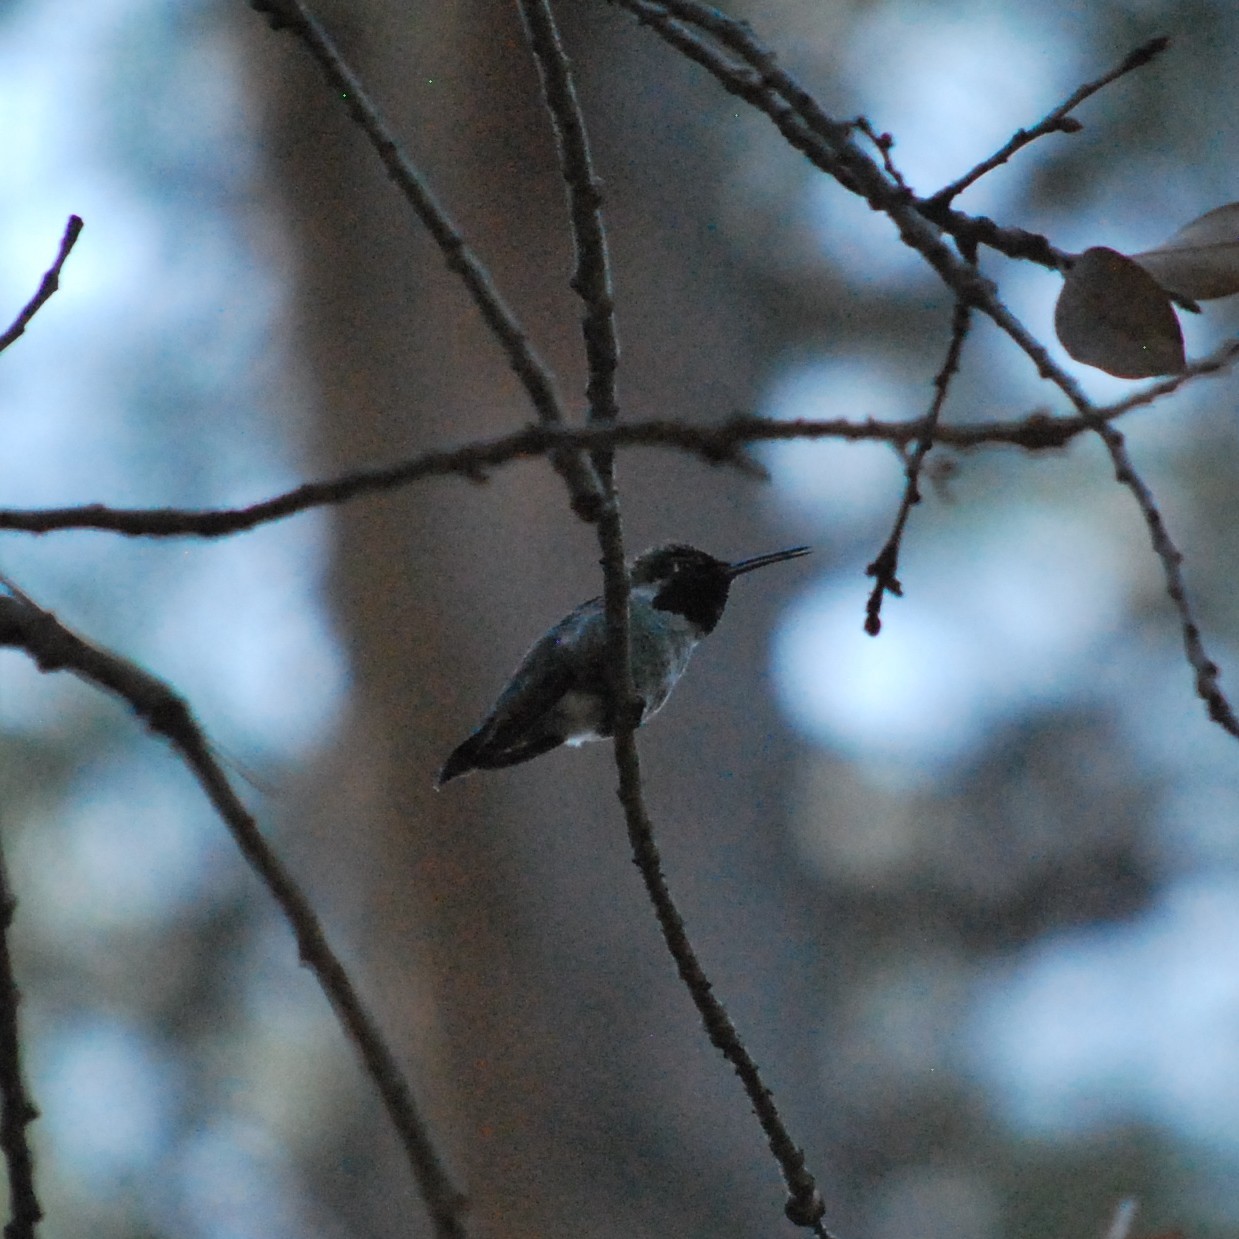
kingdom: Animalia
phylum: Chordata
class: Aves
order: Apodiformes
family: Trochilidae
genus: Calypte
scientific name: Calypte anna
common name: Anna's hummingbird
